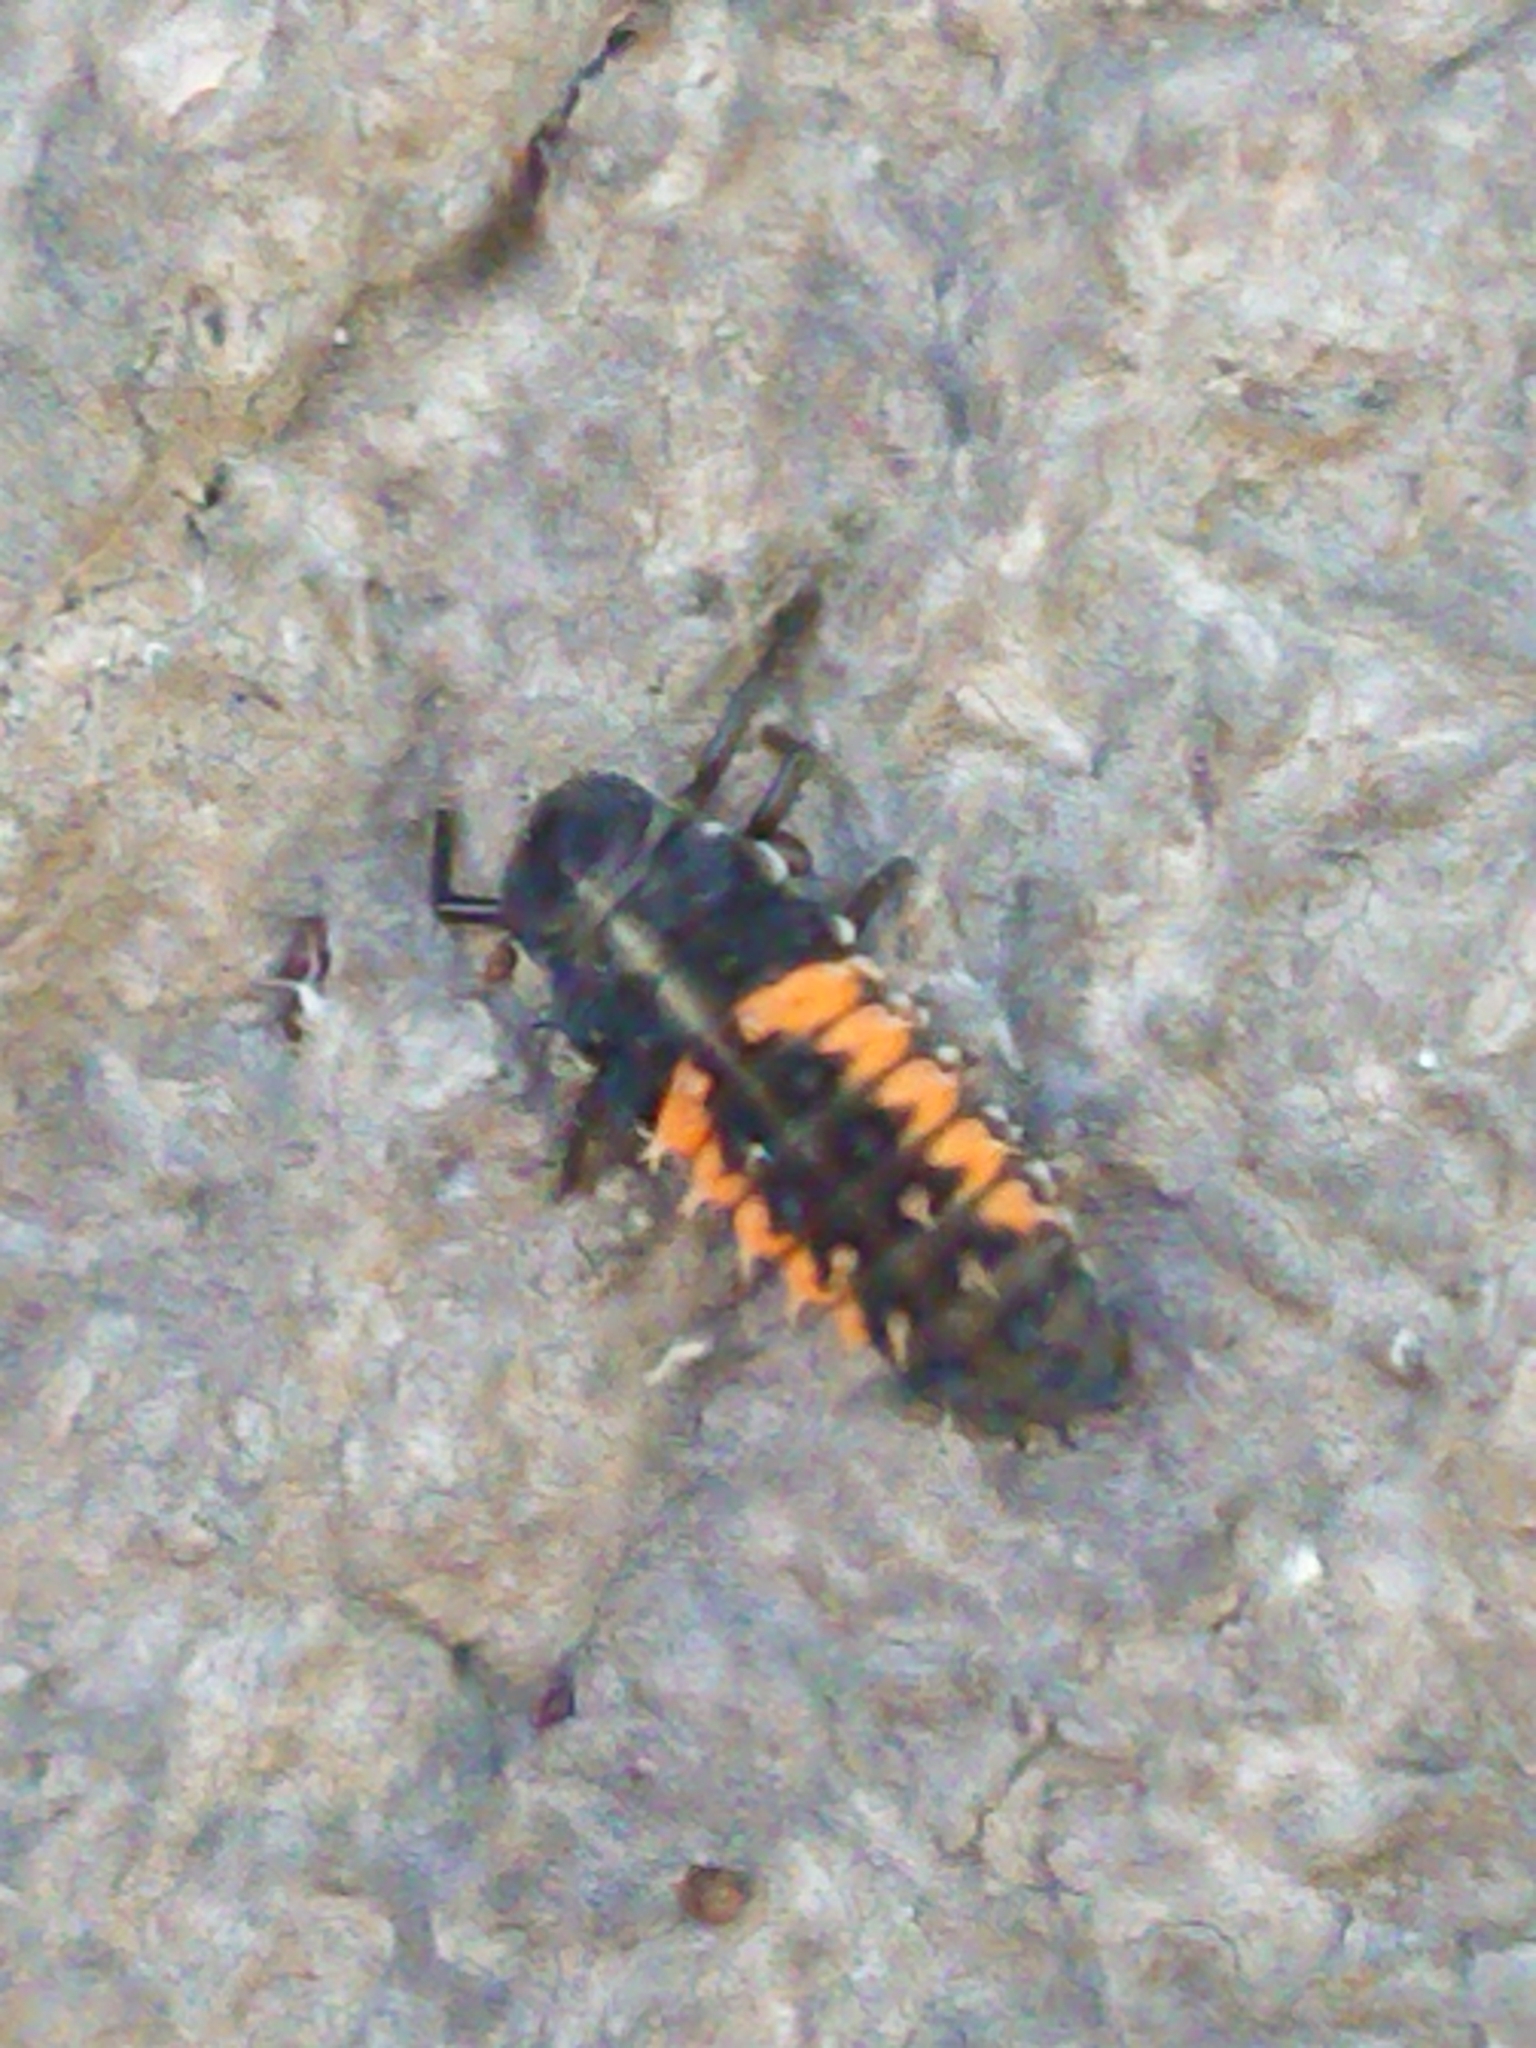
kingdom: Animalia
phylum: Arthropoda
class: Insecta
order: Coleoptera
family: Coccinellidae
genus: Harmonia
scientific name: Harmonia axyridis
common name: Harlequin ladybird
